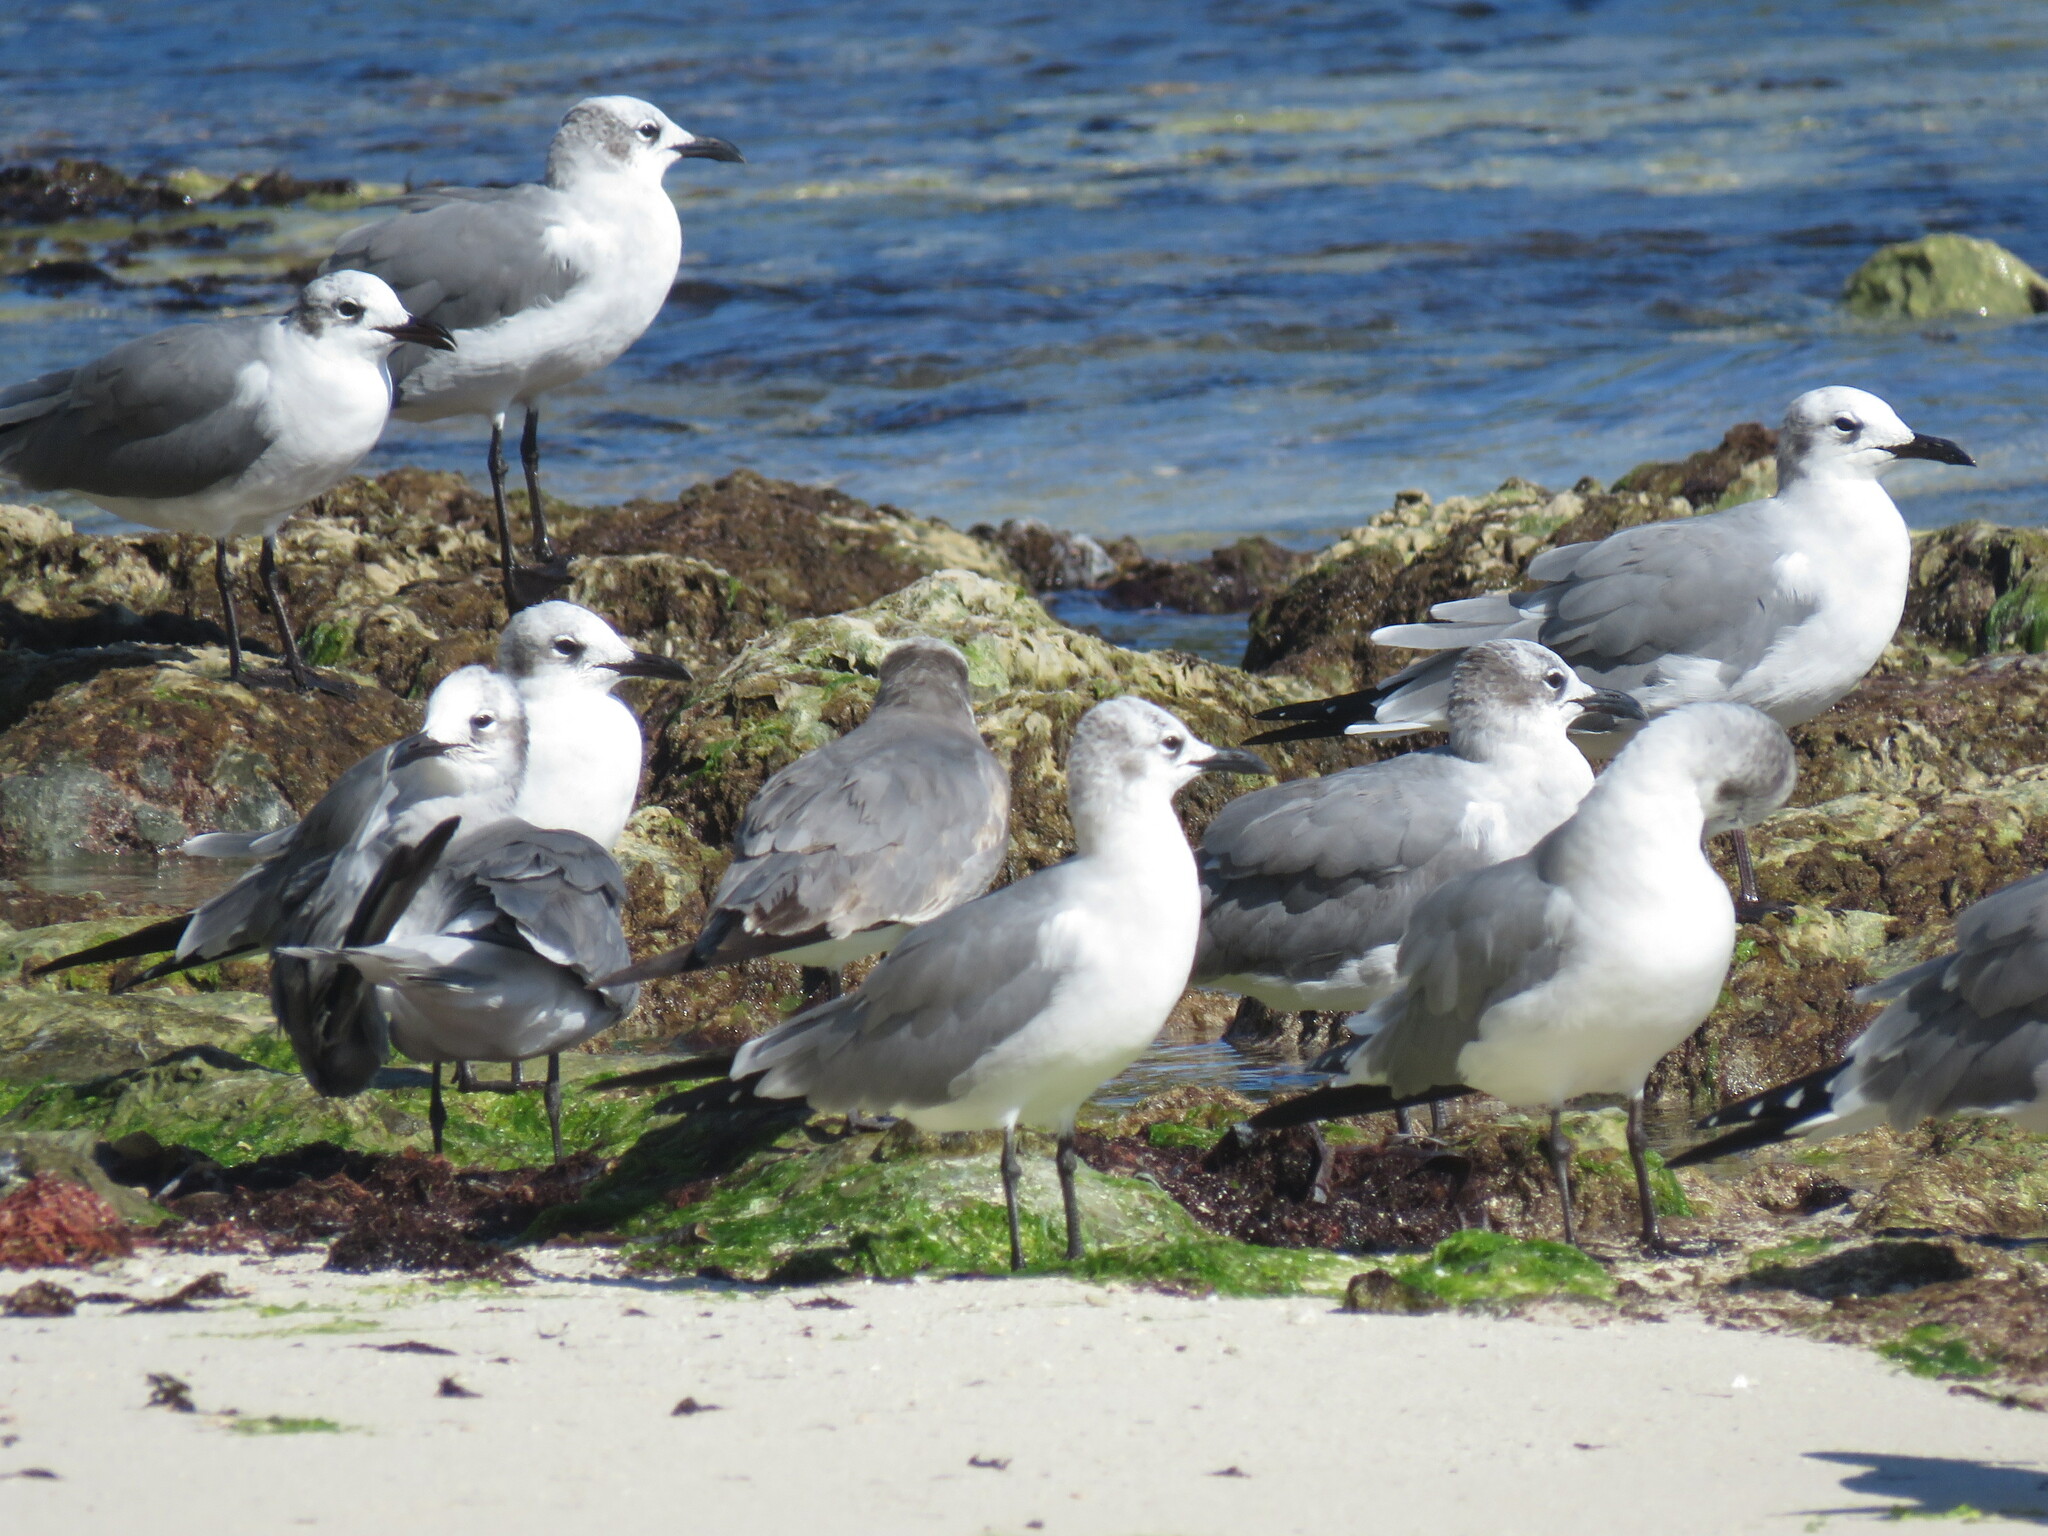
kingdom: Animalia
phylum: Chordata
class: Aves
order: Charadriiformes
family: Laridae
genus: Leucophaeus
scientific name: Leucophaeus atricilla
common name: Laughing gull
